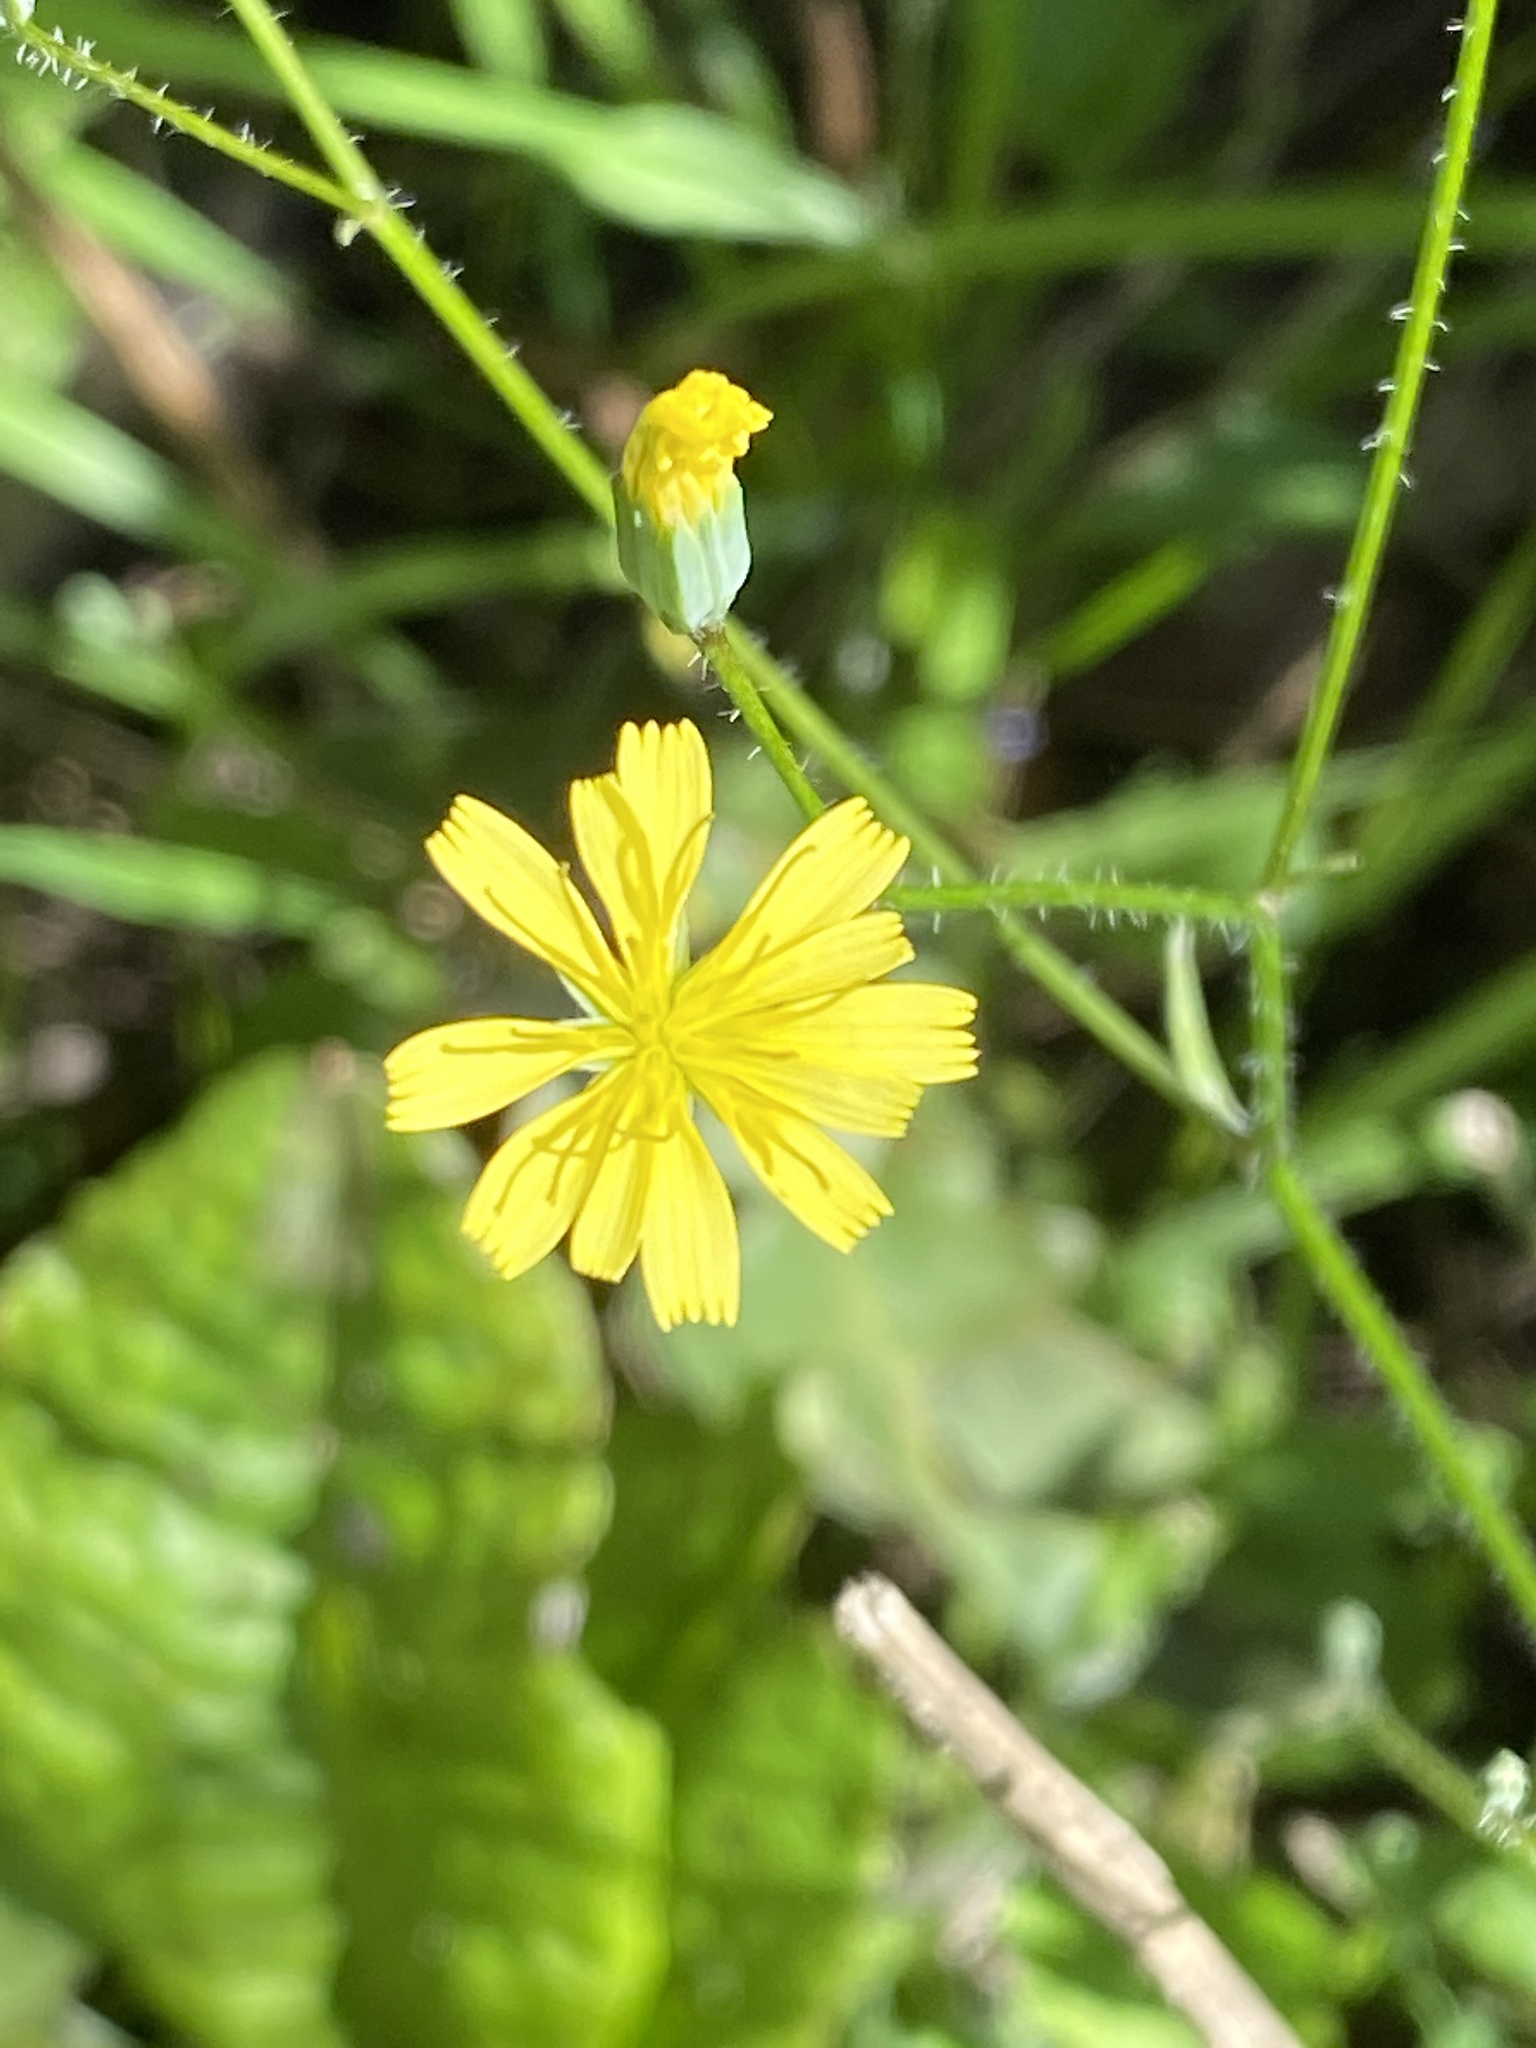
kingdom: Plantae
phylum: Tracheophyta
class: Magnoliopsida
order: Asterales
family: Asteraceae
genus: Lapsana
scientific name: Lapsana communis
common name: Nipplewort
